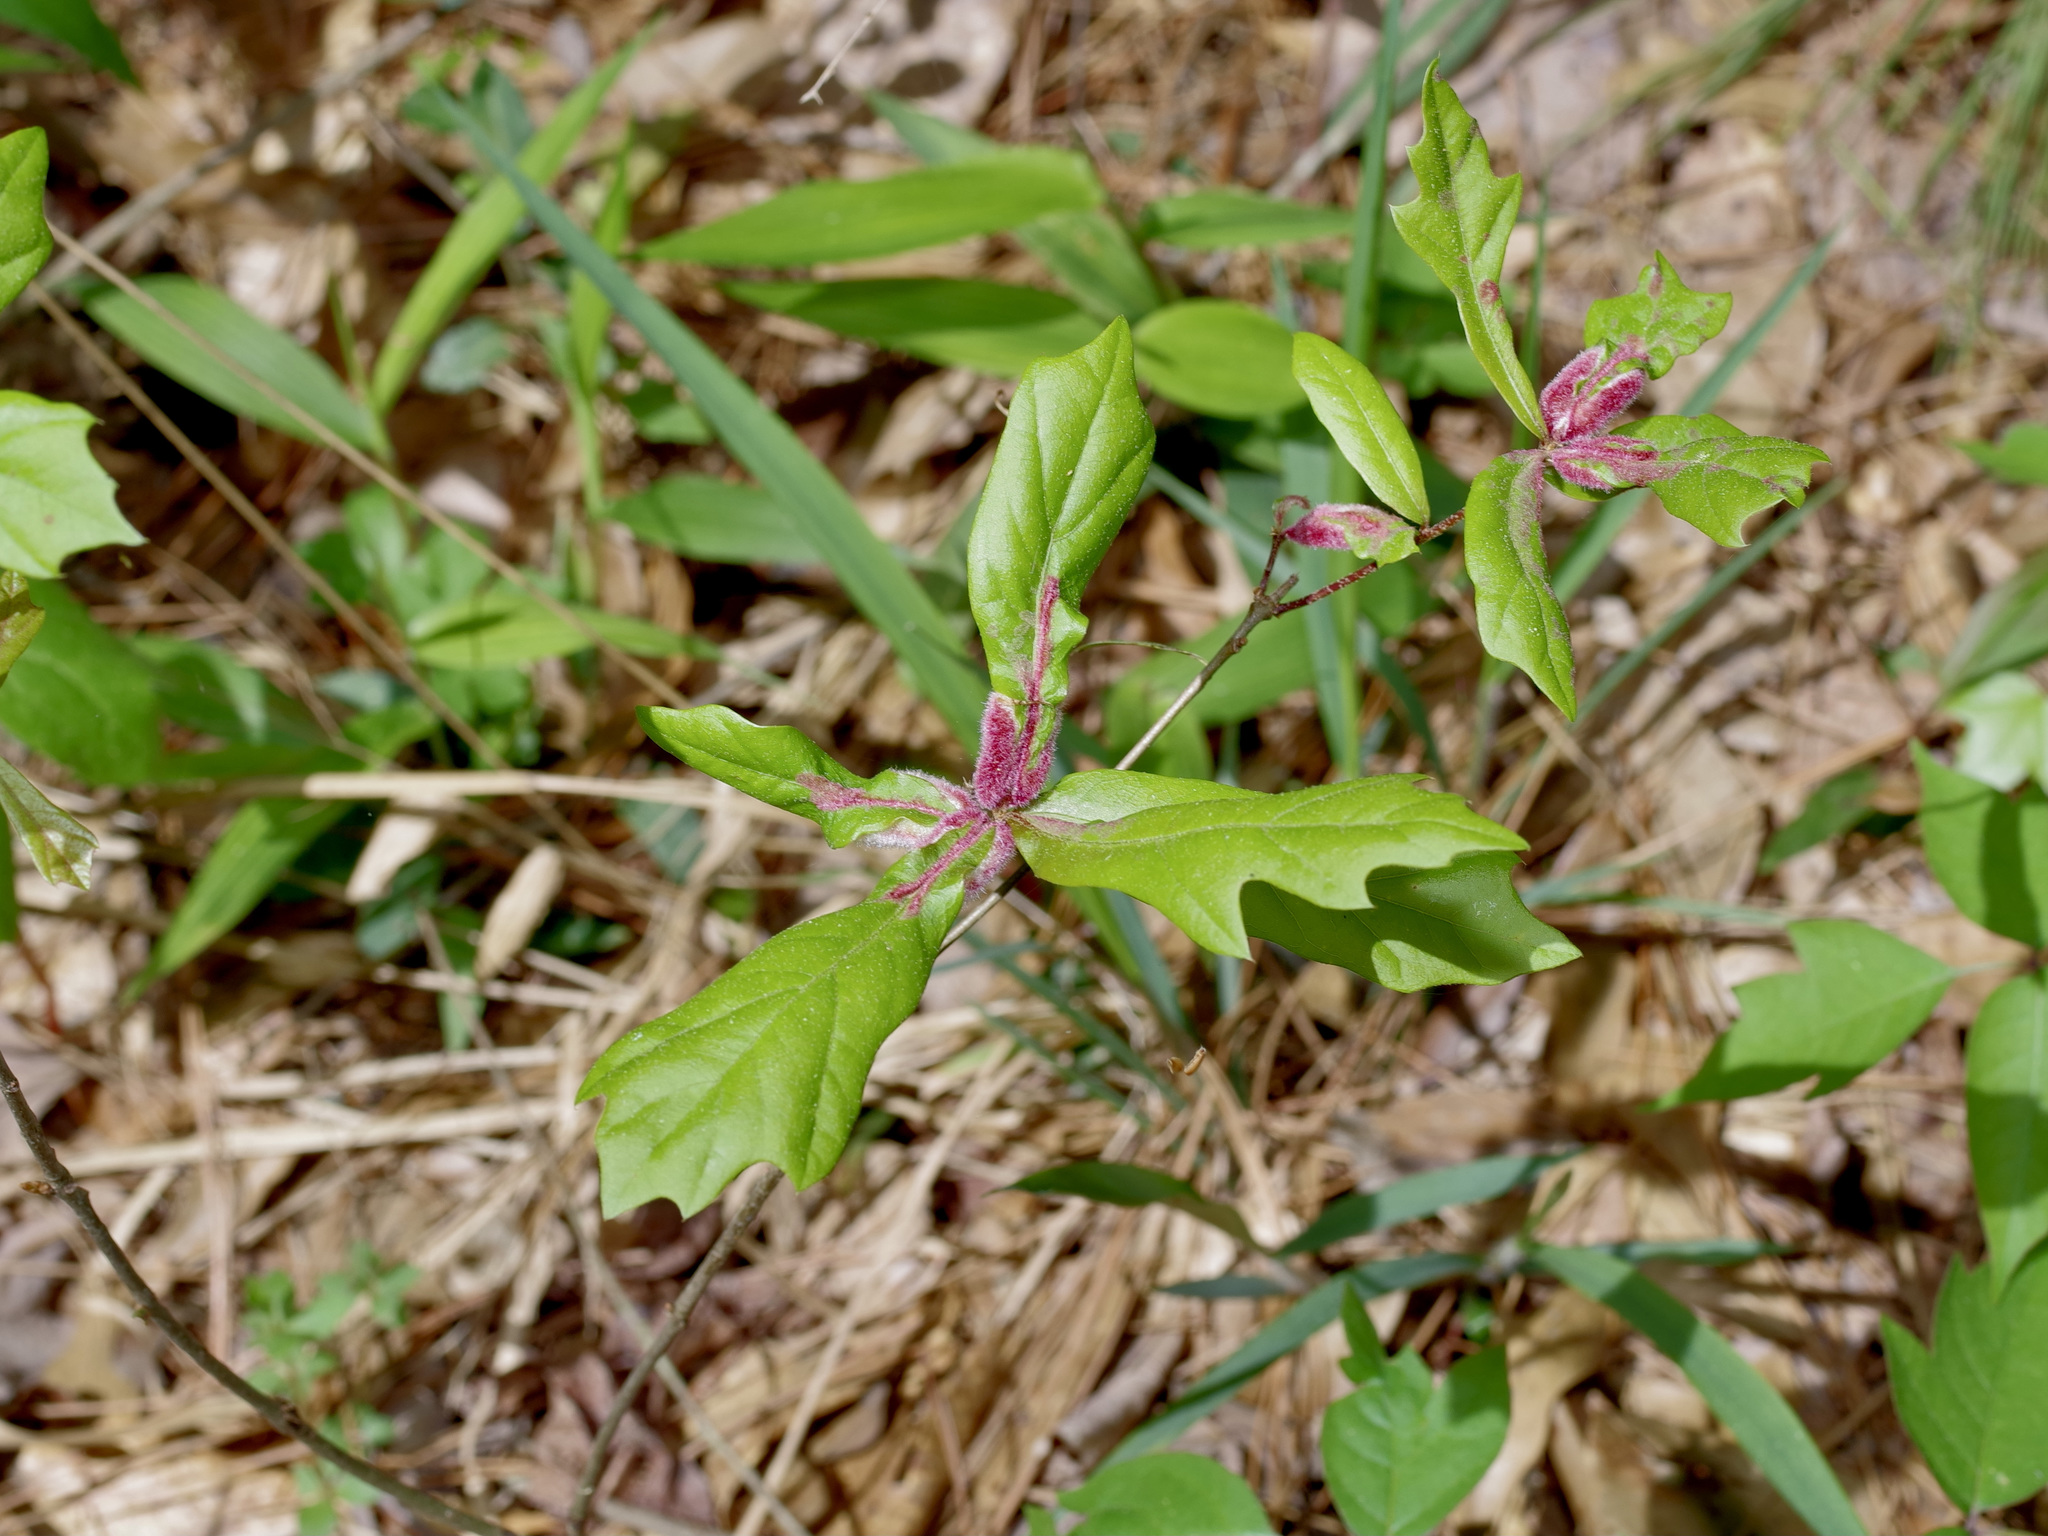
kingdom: Animalia
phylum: Arthropoda
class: Insecta
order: Diptera
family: Cecidomyiidae
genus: Macrodiplosis
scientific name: Macrodiplosis niveipila
